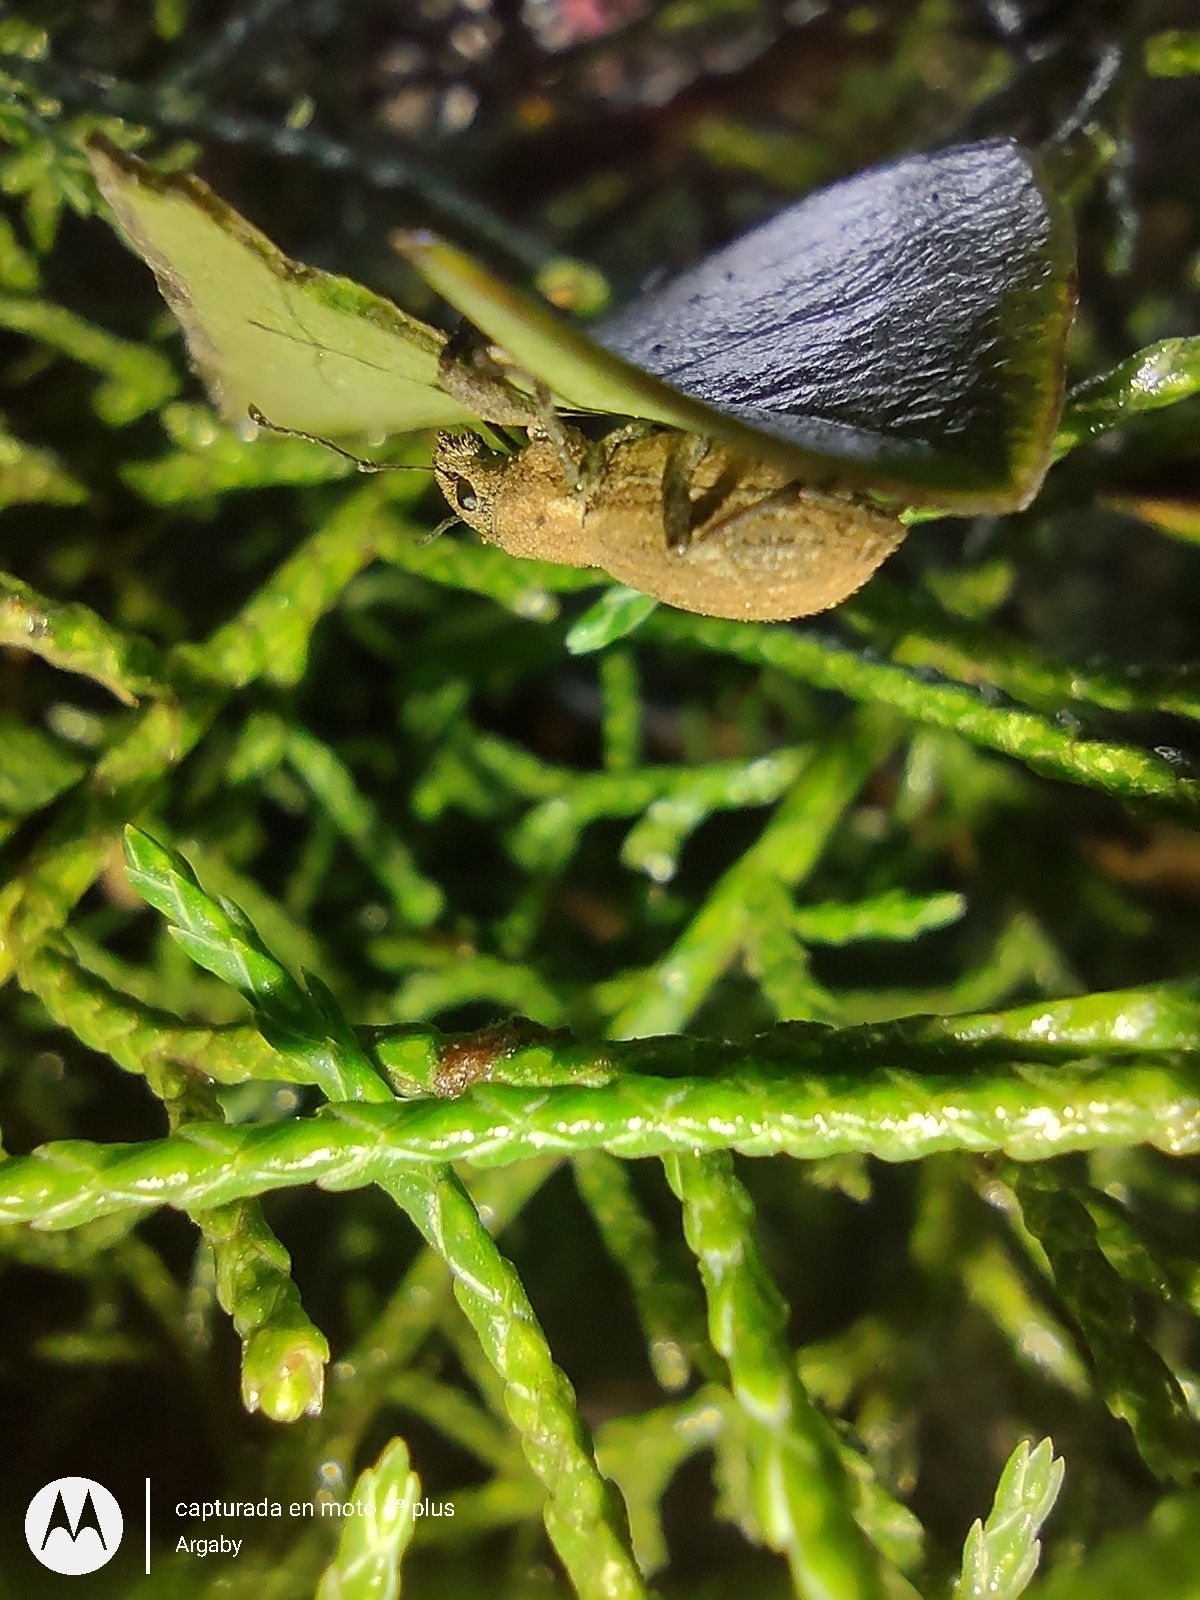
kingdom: Animalia
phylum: Arthropoda
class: Insecta
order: Coleoptera
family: Curculionidae
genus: Naupactus
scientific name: Naupactus cervinus
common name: Fuller rose beetle
